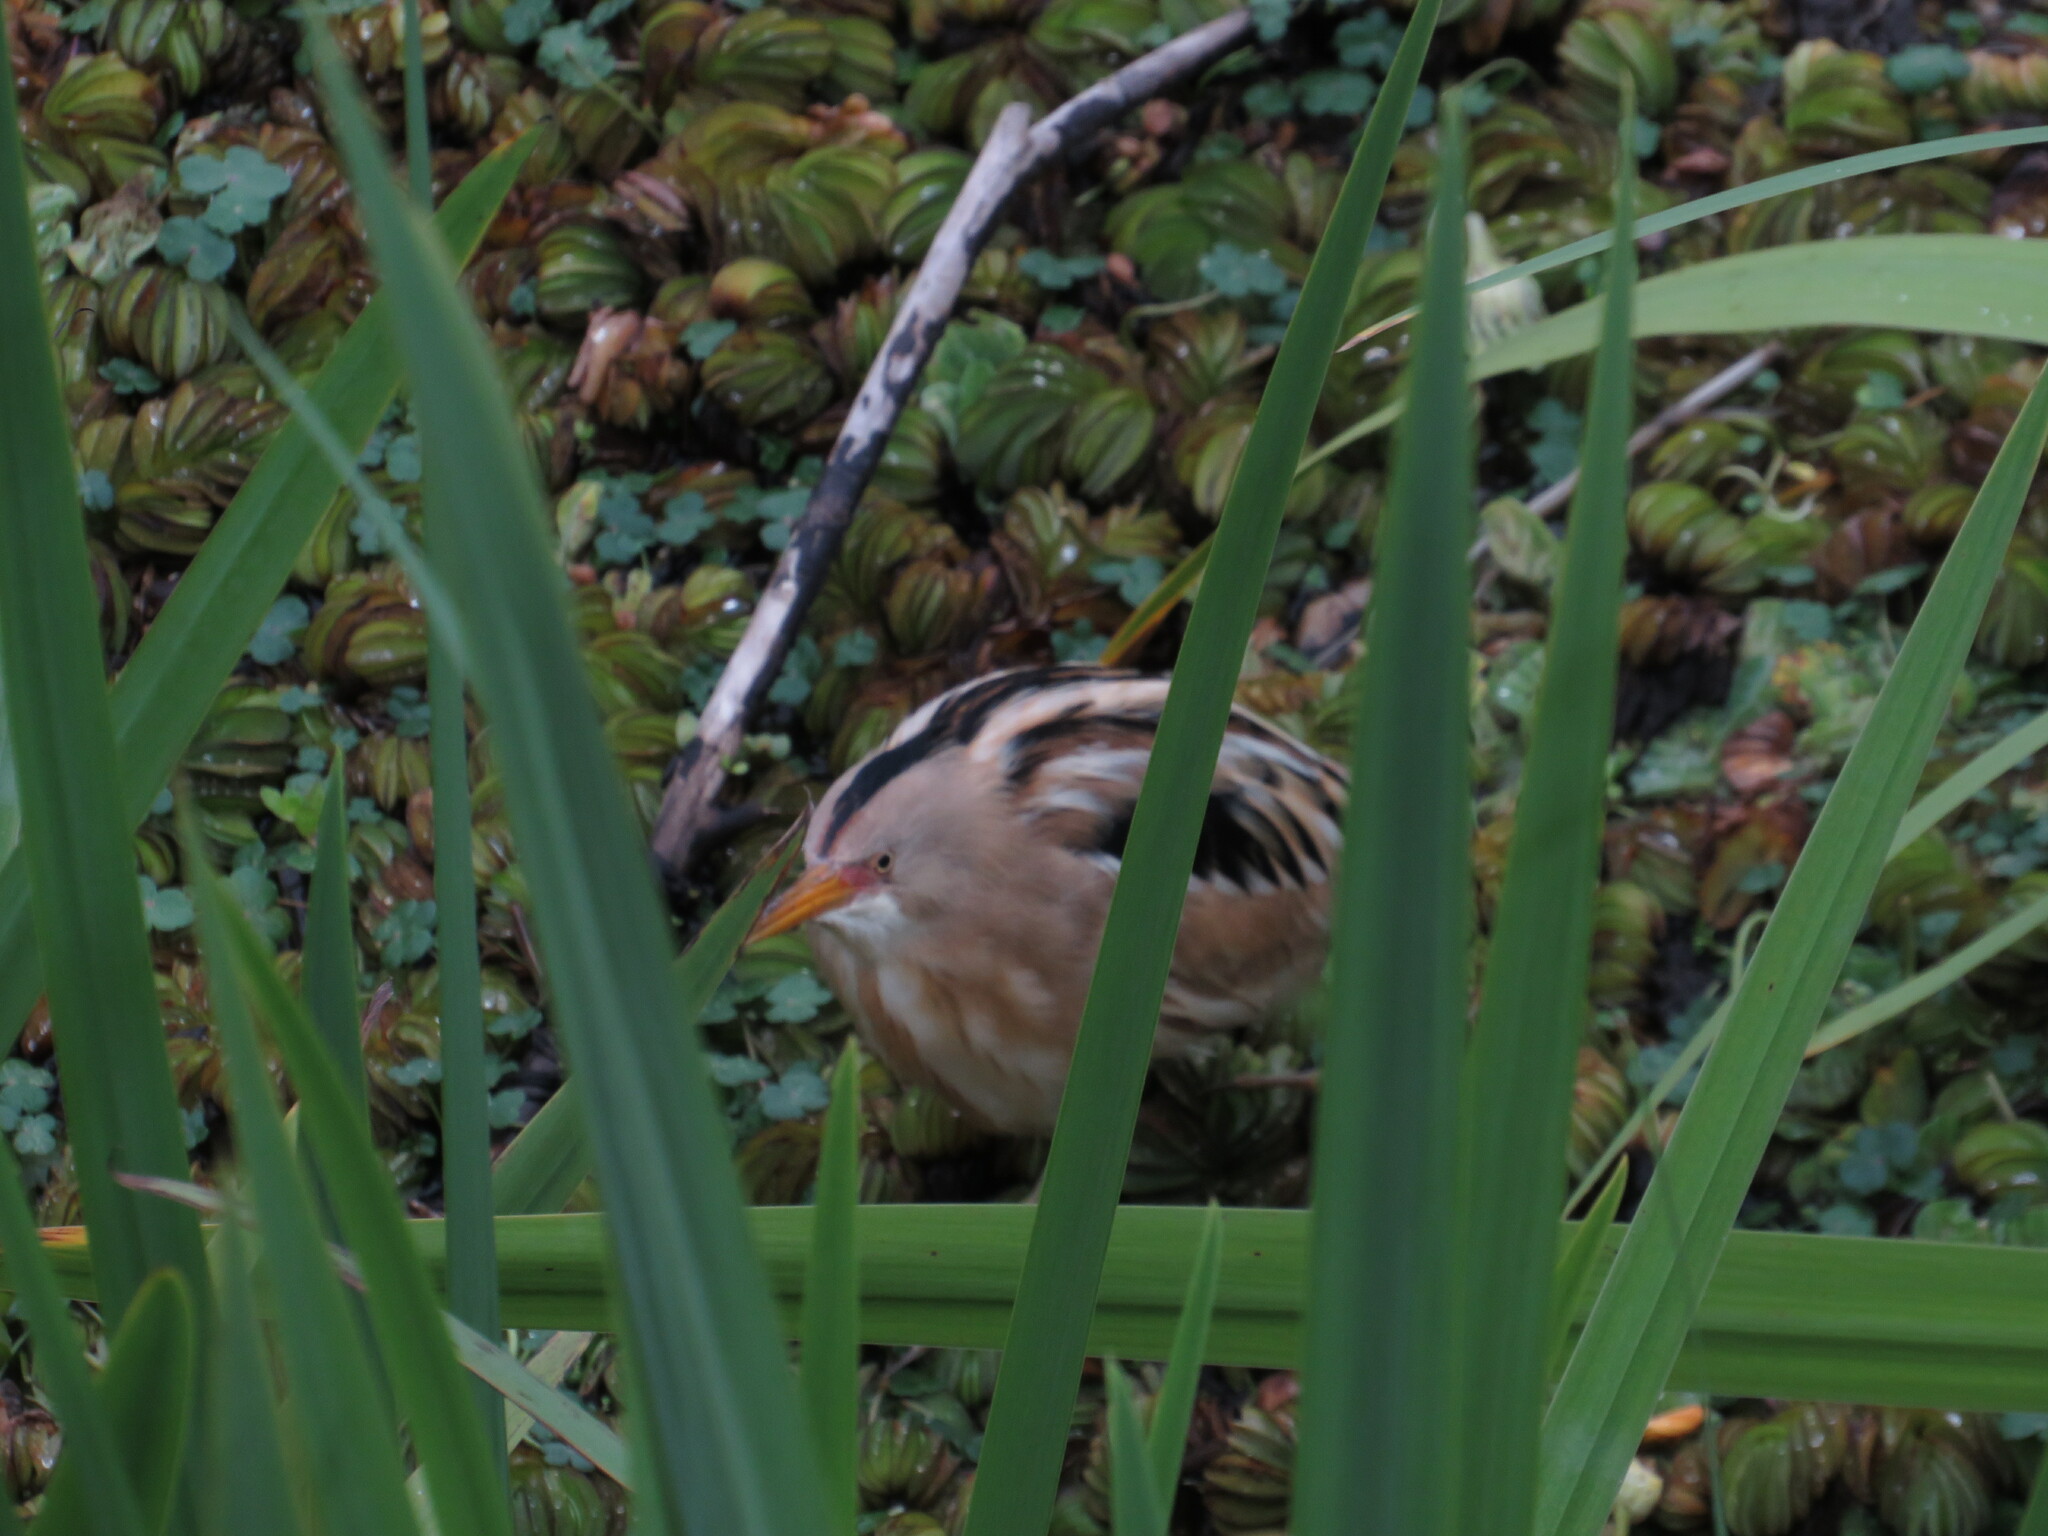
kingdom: Animalia
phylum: Chordata
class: Aves
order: Pelecaniformes
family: Ardeidae
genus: Ixobrychus
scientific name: Ixobrychus involucris
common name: Stripe-backed bittern
